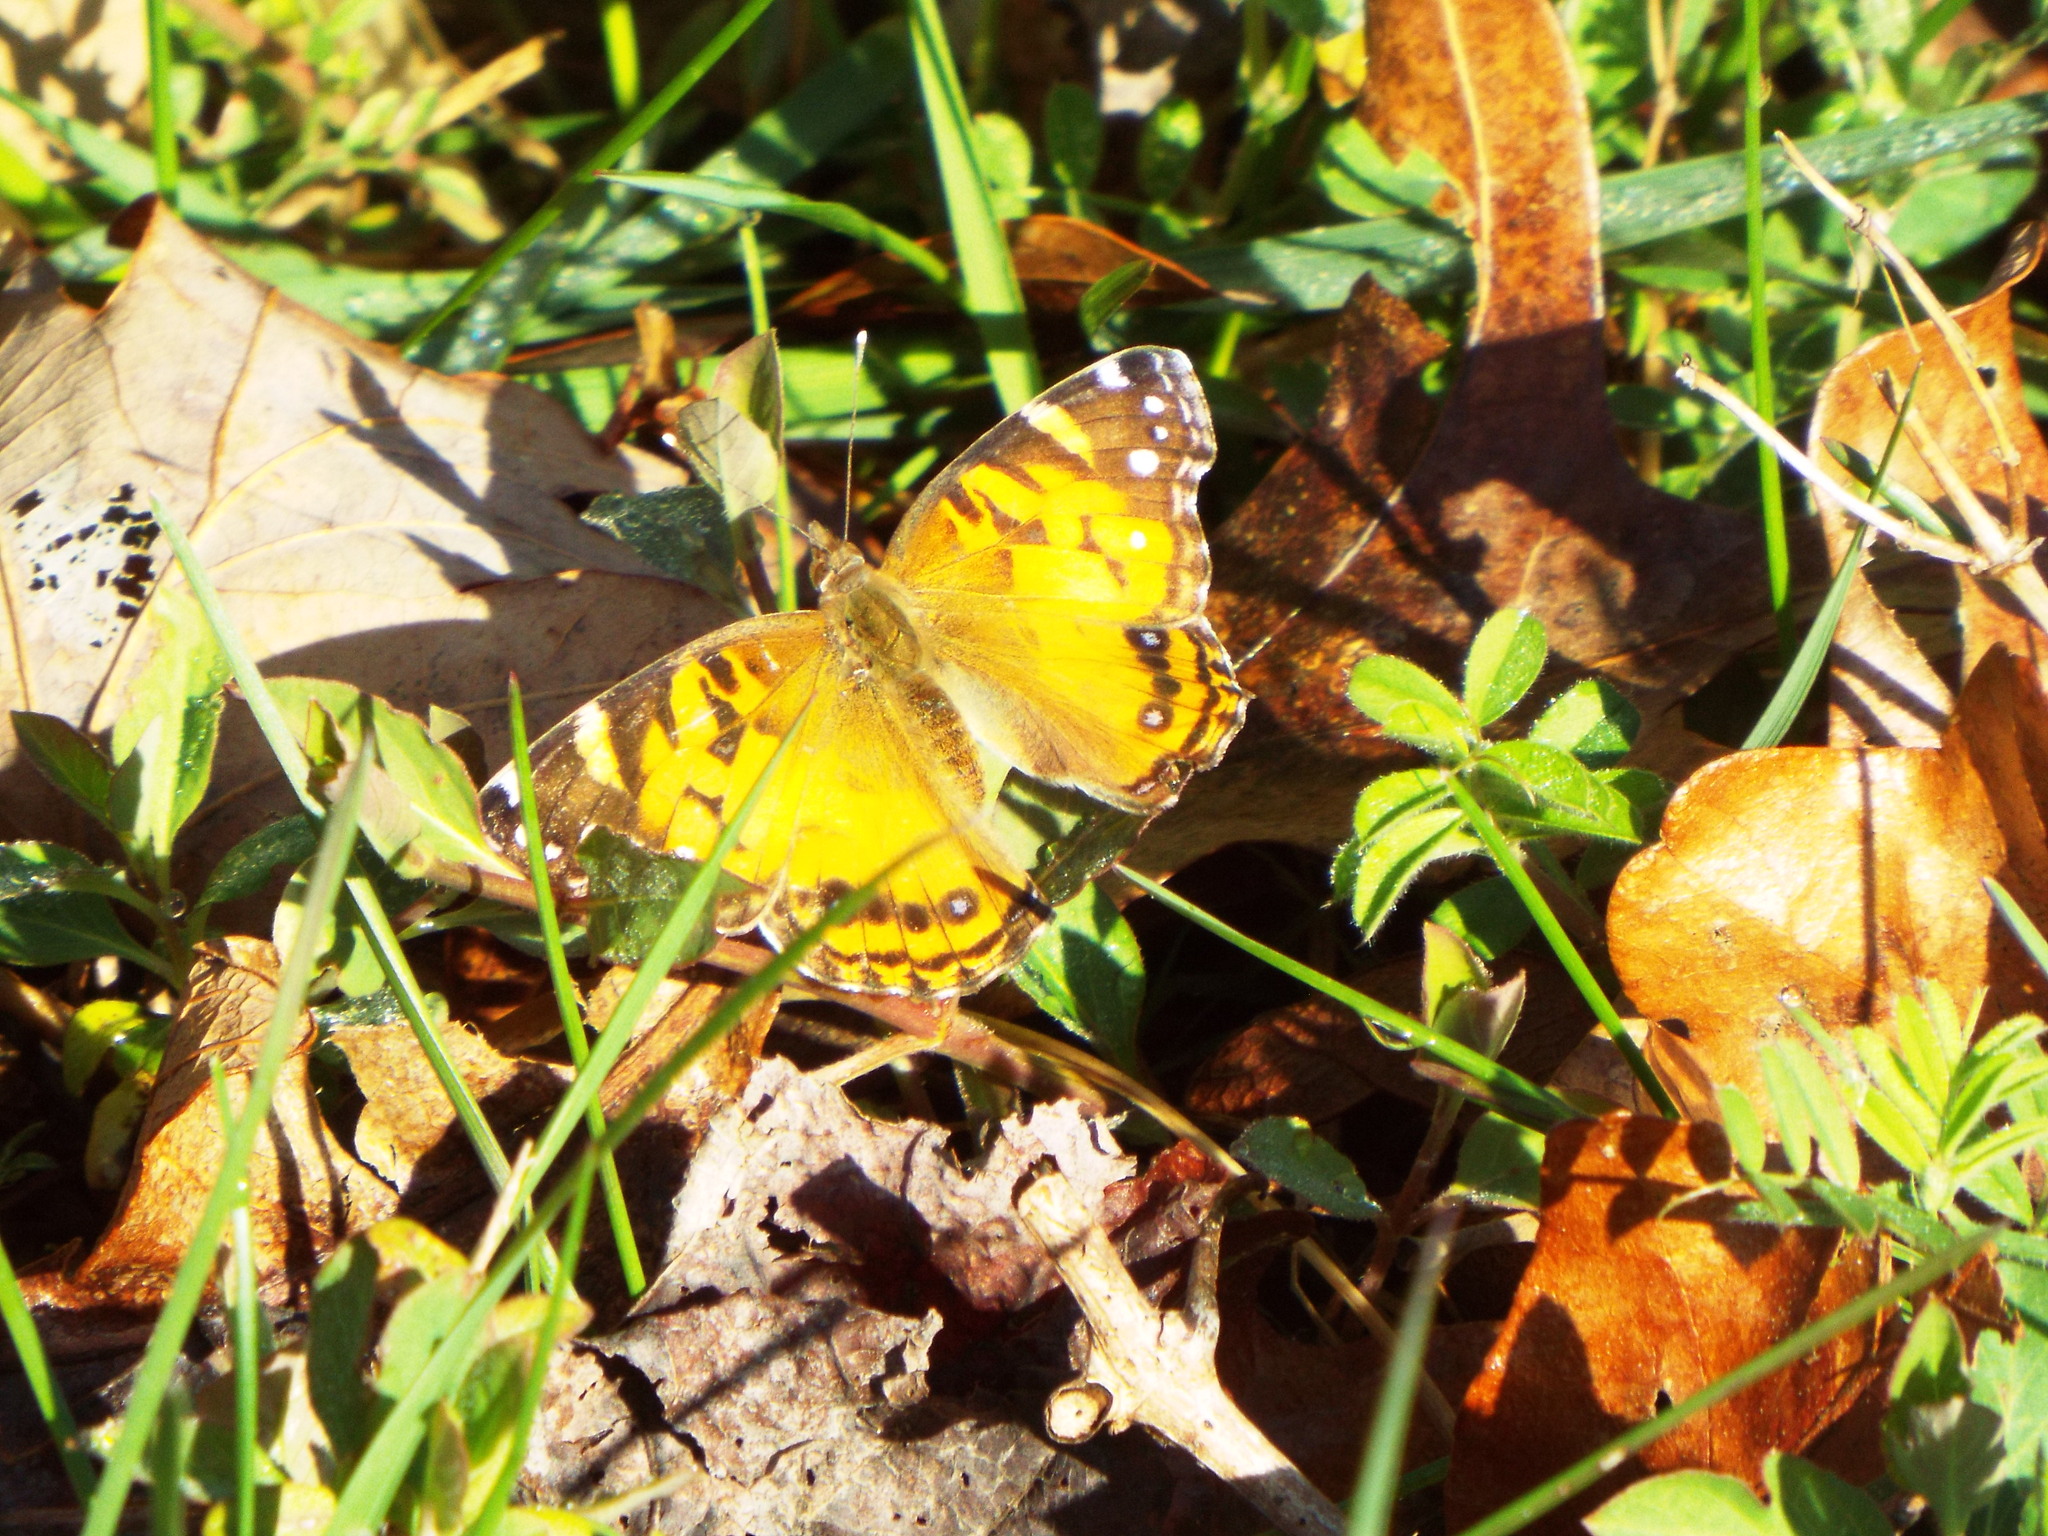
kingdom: Animalia
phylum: Arthropoda
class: Insecta
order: Lepidoptera
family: Nymphalidae
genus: Vanessa
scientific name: Vanessa virginiensis
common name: American lady
